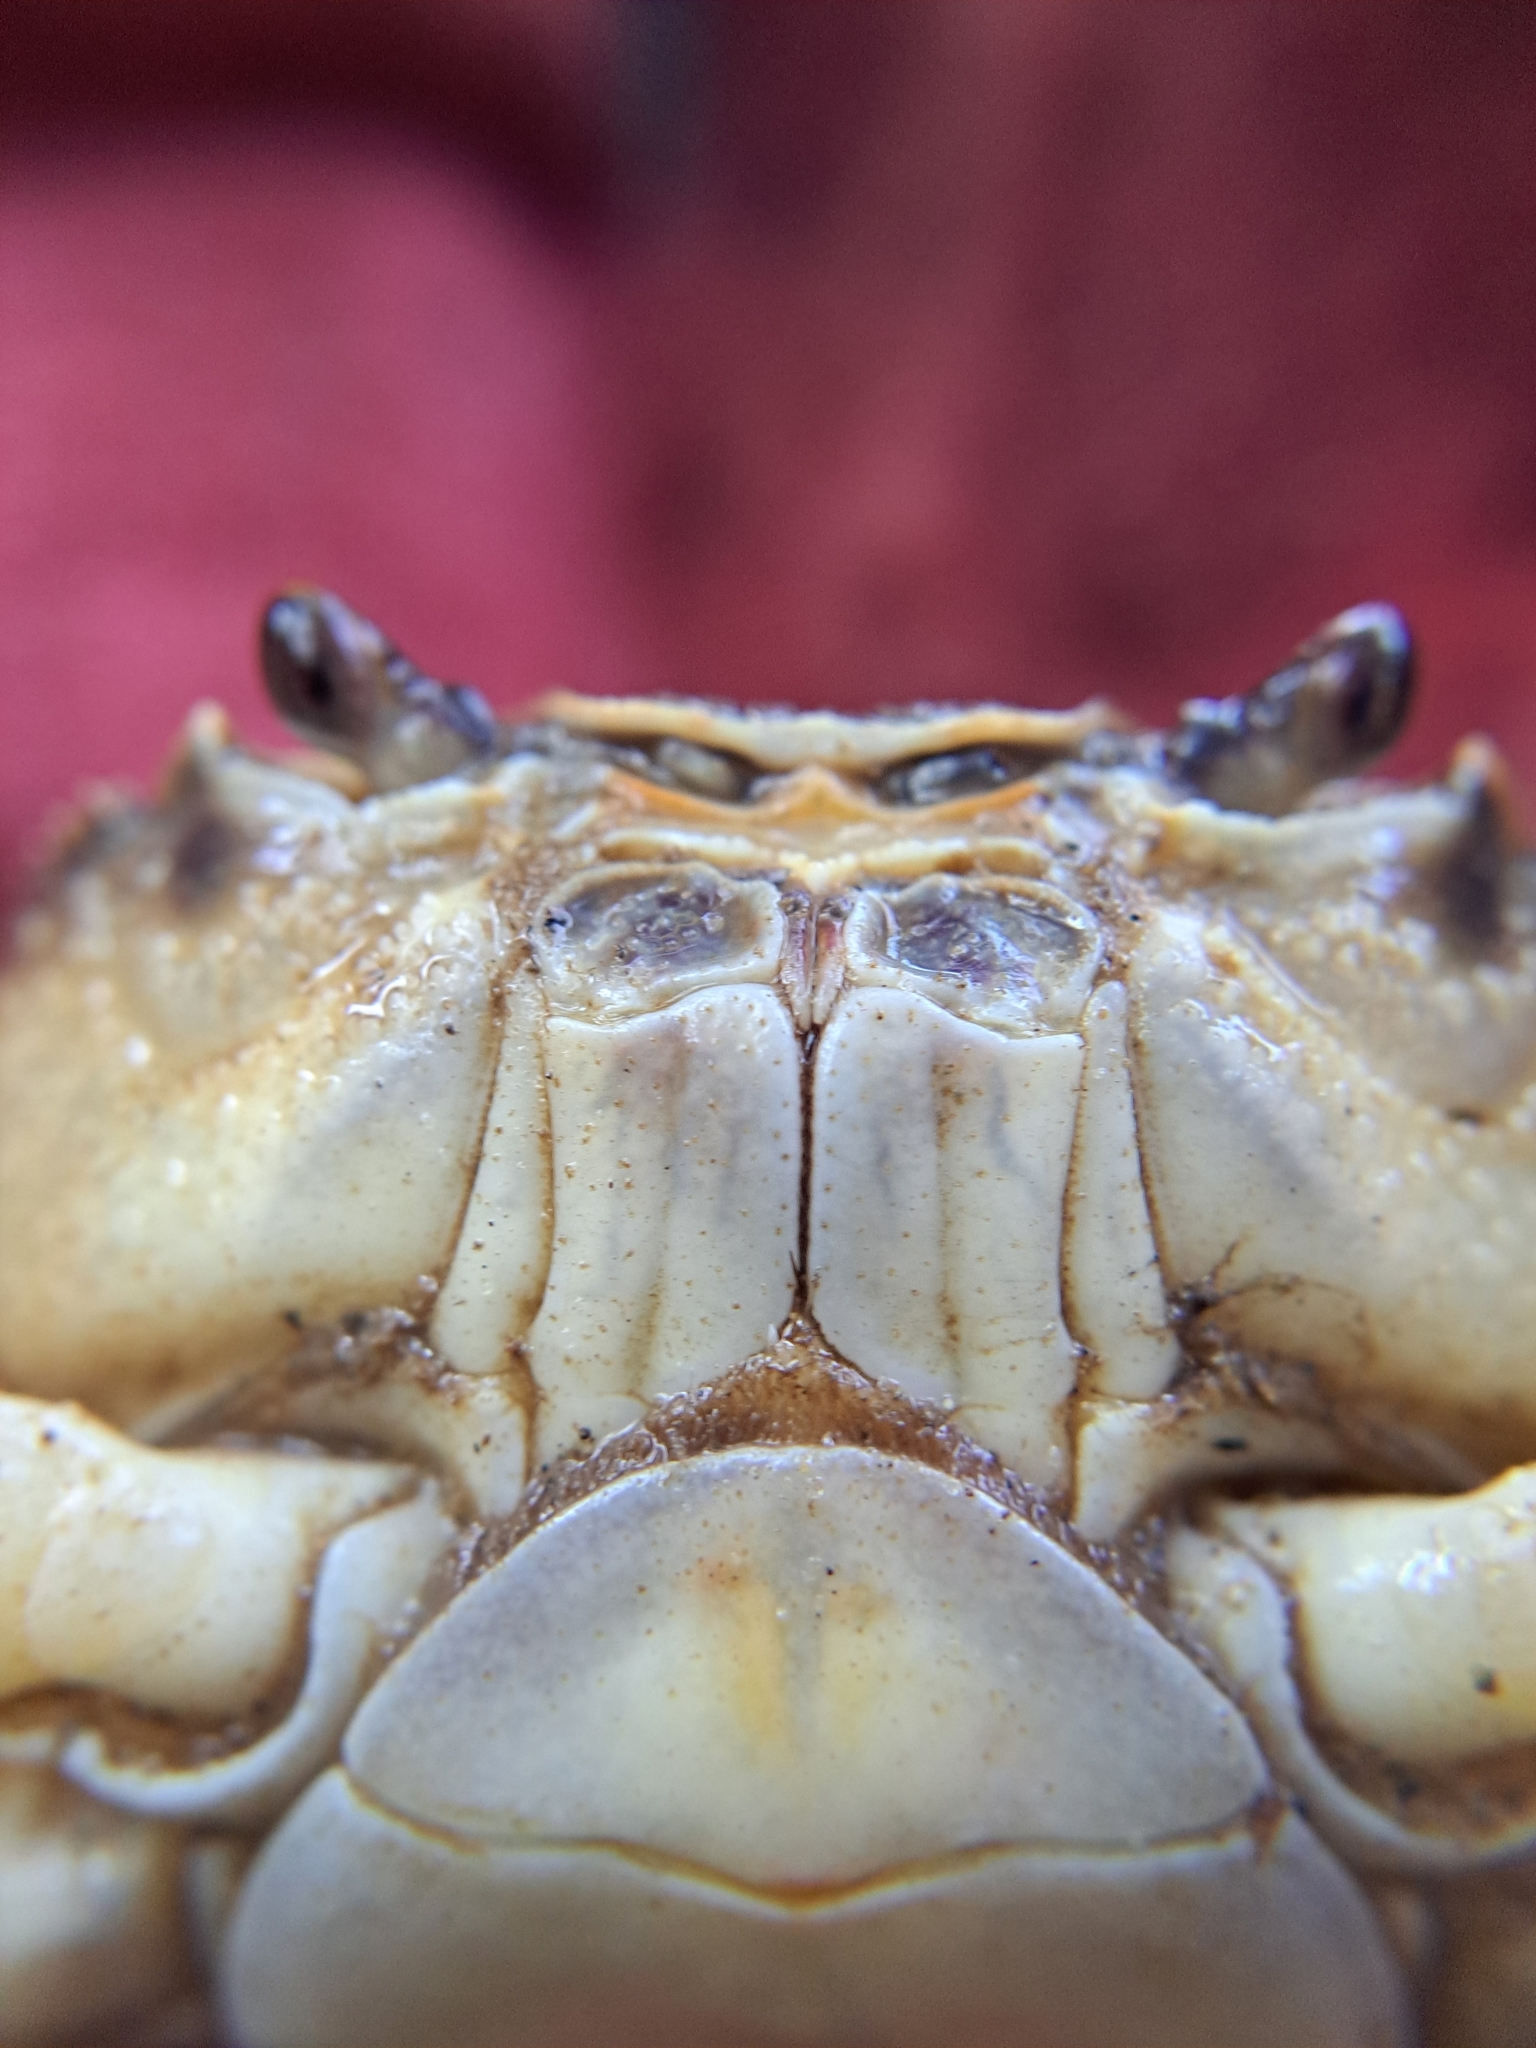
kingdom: Animalia
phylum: Arthropoda
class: Malacostraca
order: Decapoda
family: Potamidae
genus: Potamon
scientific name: Potamon fluviatile
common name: Italian freshwater crab
